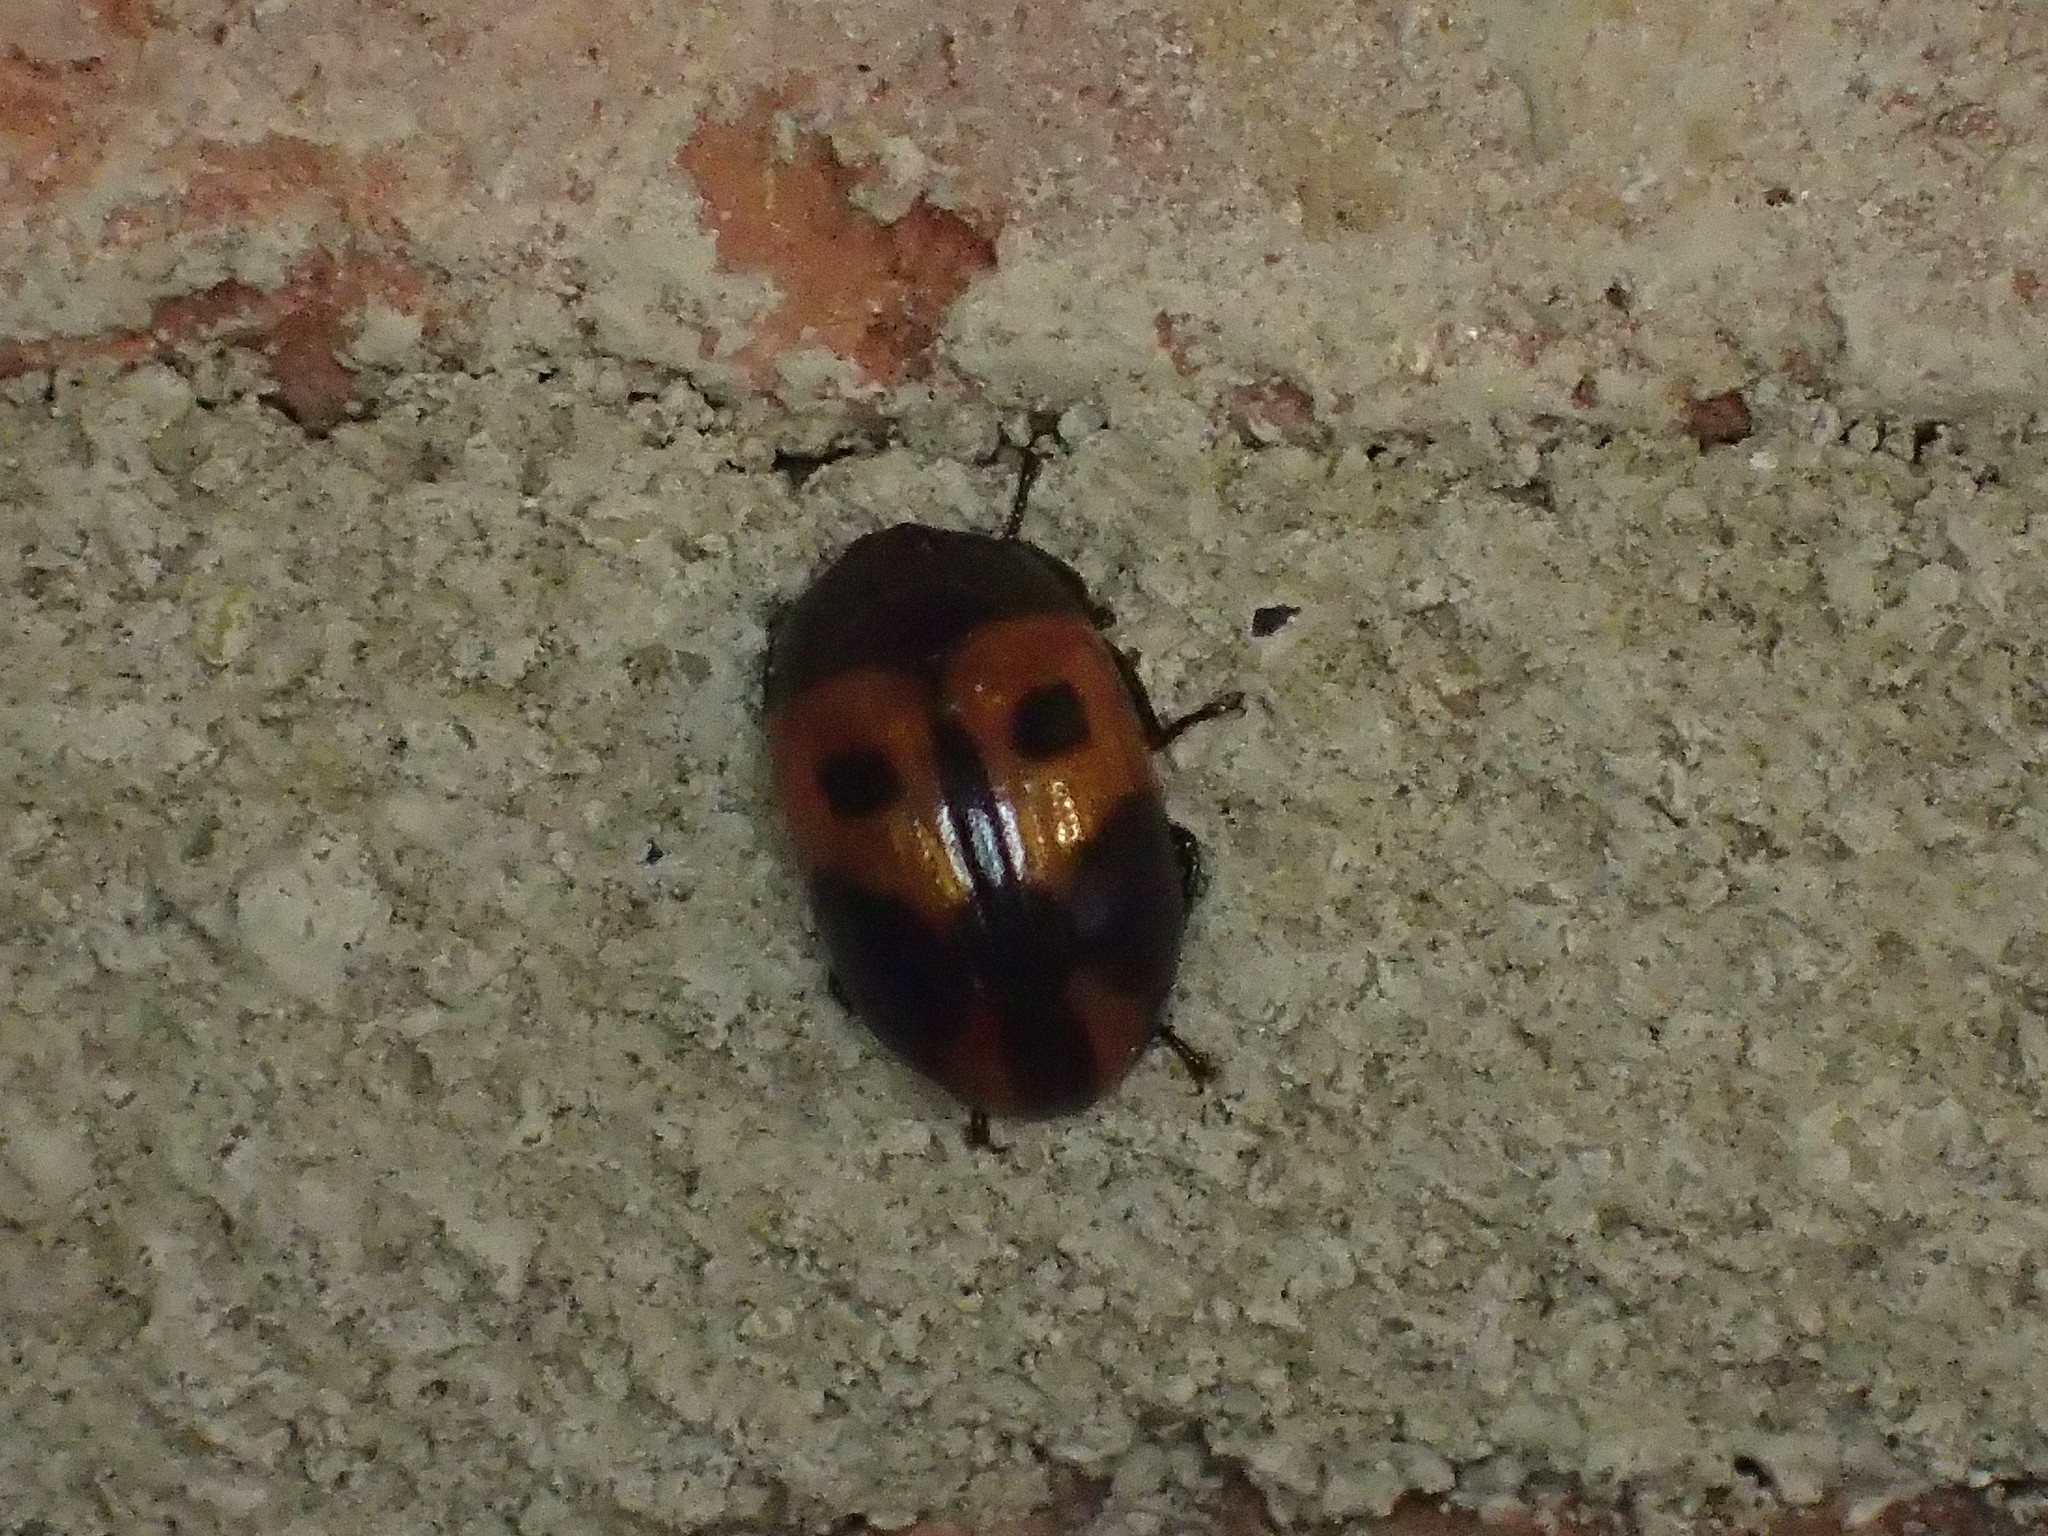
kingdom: Animalia
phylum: Arthropoda
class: Insecta
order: Coleoptera
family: Tenebrionidae
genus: Diaperis
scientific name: Diaperis maculata
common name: Darkling beetle
